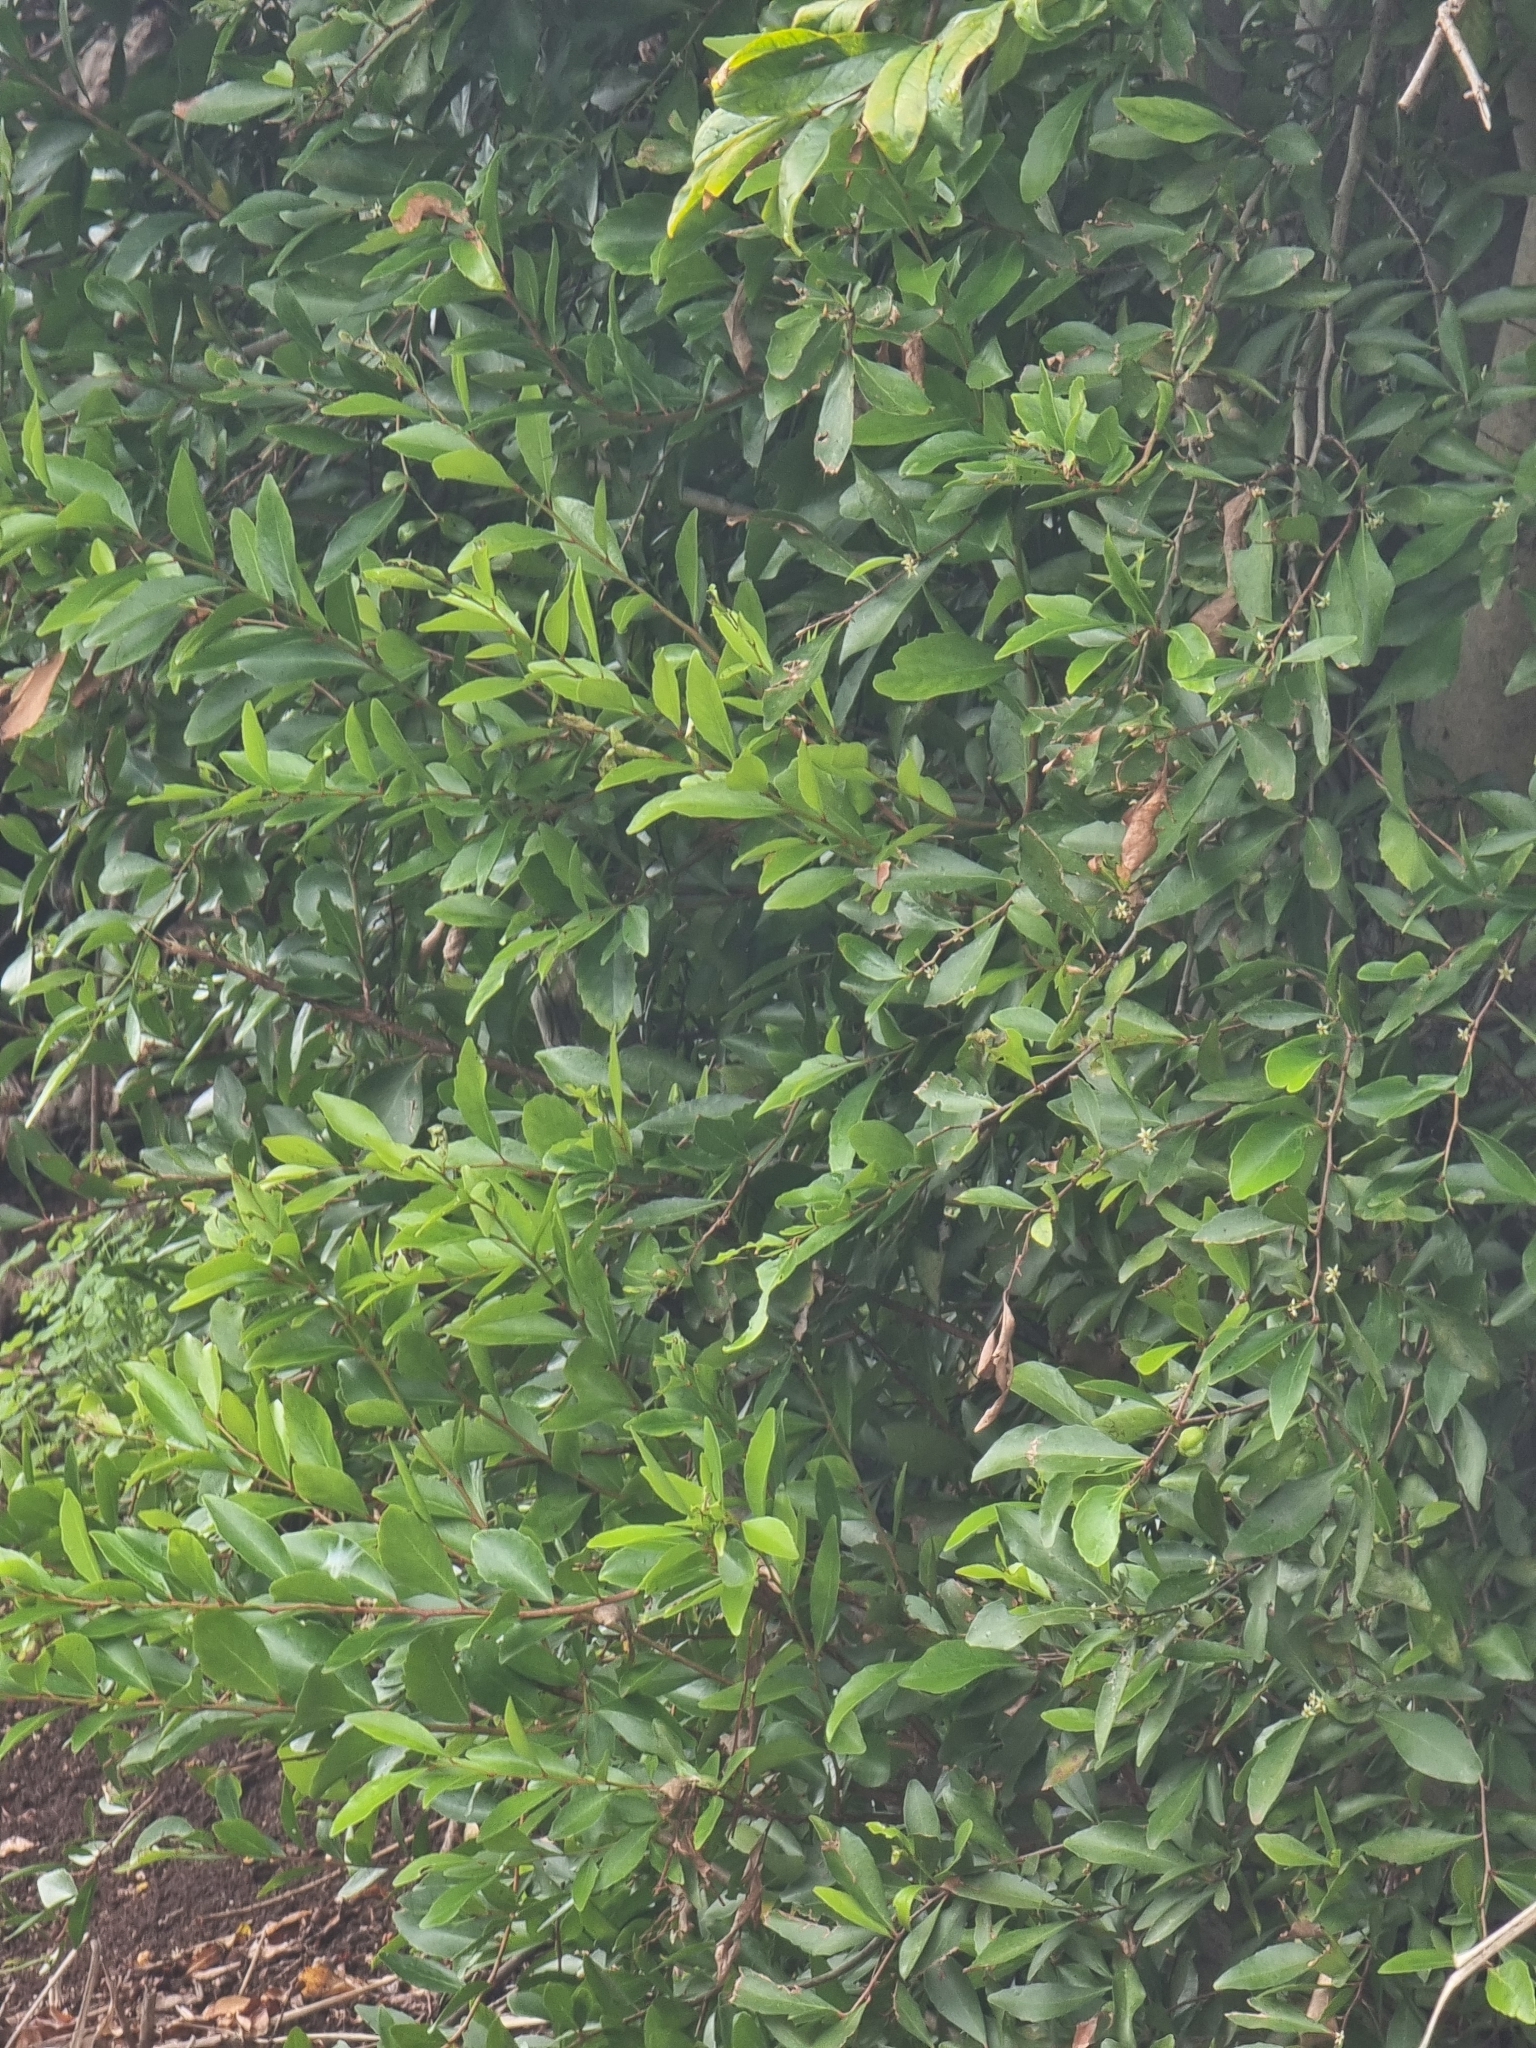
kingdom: Plantae
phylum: Tracheophyta
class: Magnoliopsida
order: Celastrales
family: Celastraceae
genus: Gymnosporia
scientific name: Gymnosporia dryandri
